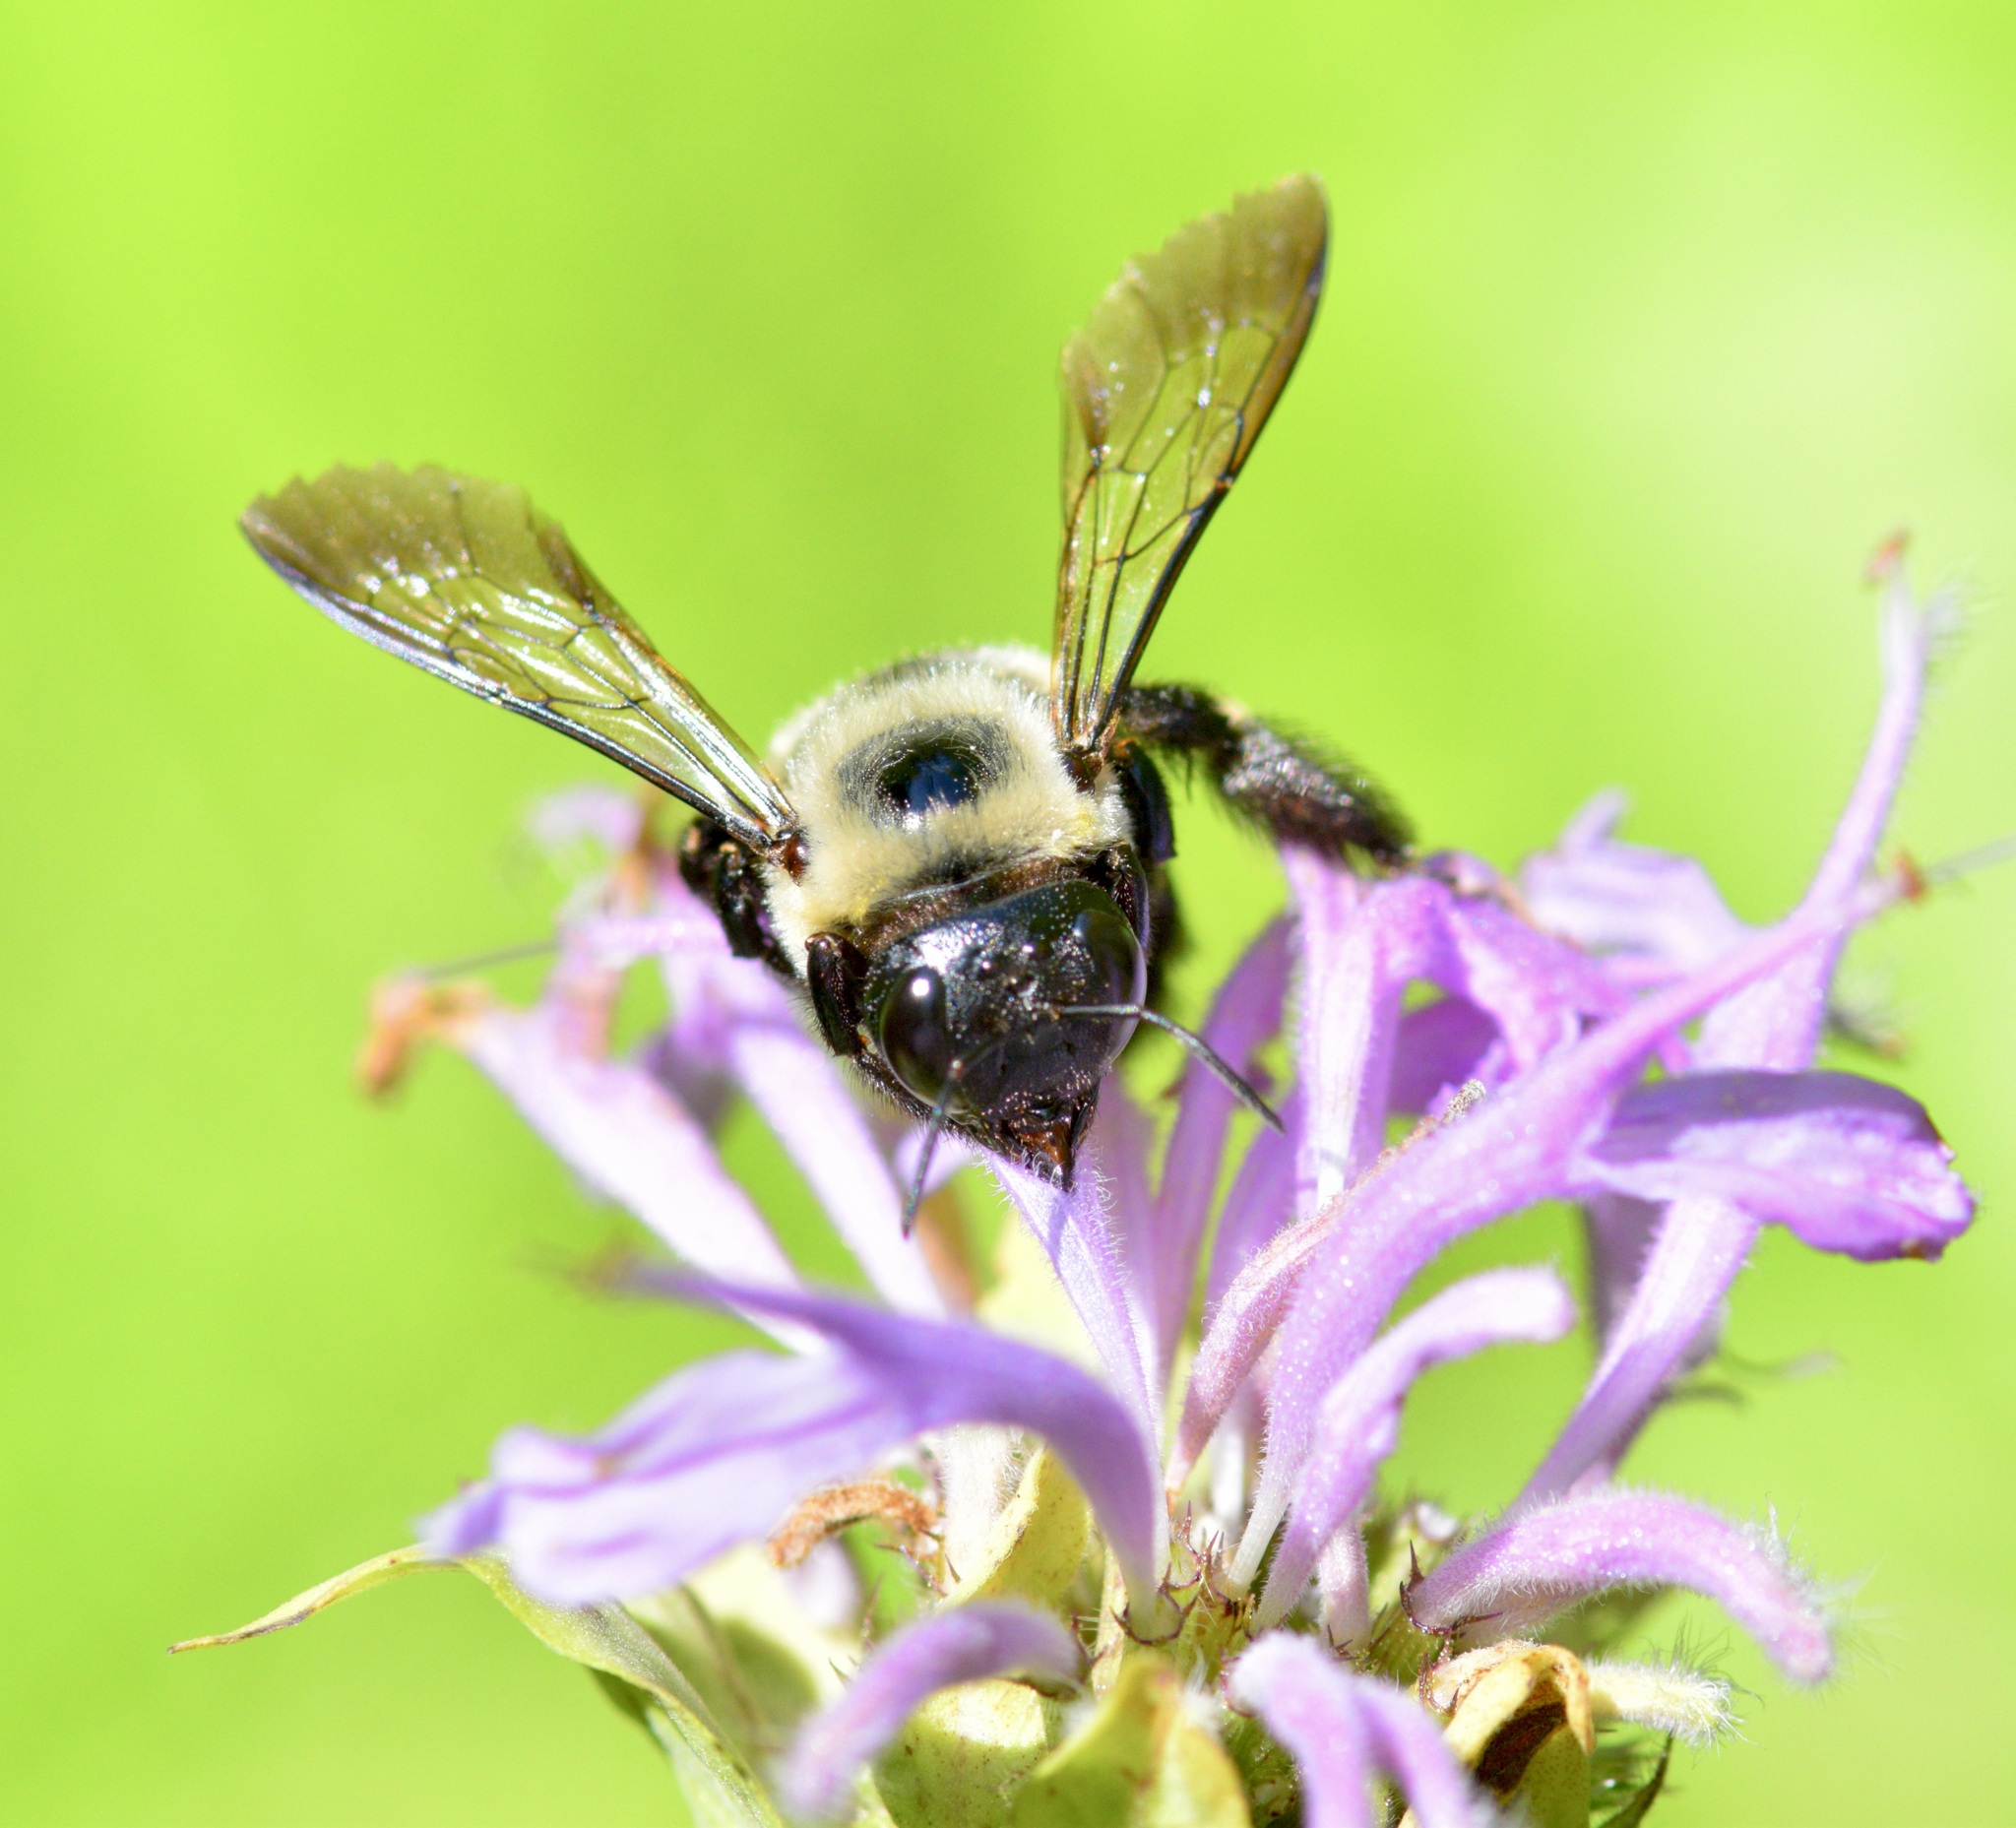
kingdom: Animalia
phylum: Arthropoda
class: Insecta
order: Hymenoptera
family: Apidae
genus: Xylocopa
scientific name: Xylocopa virginica
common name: Carpenter bee
